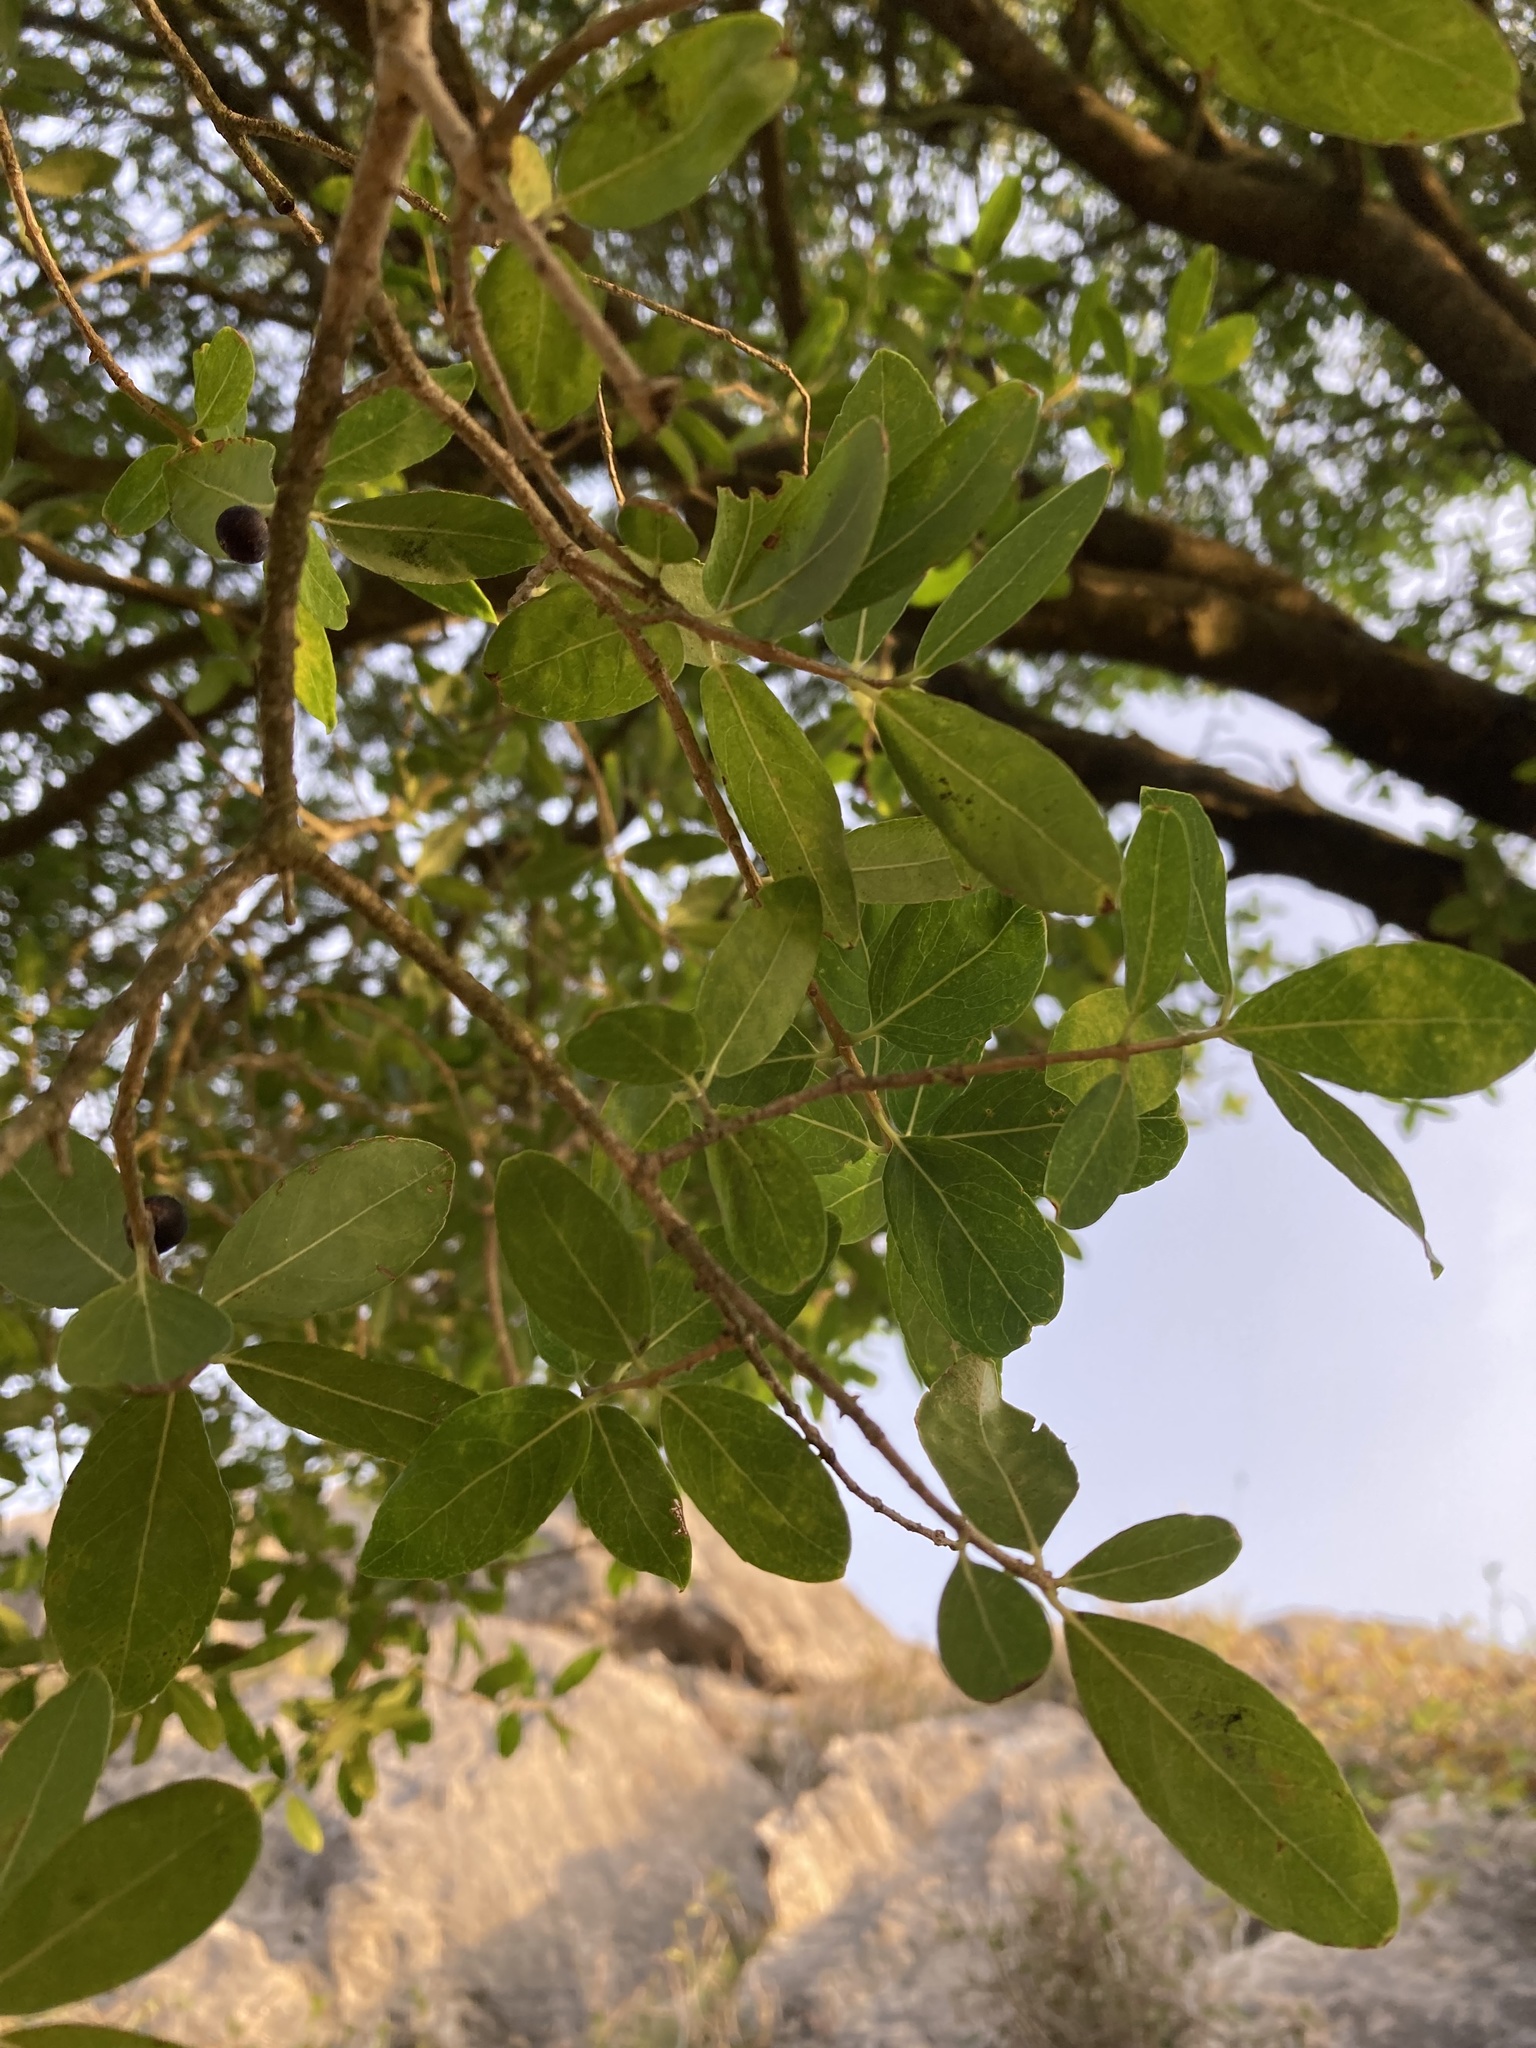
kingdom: Plantae
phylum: Tracheophyta
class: Magnoliopsida
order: Lamiales
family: Oleaceae
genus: Phillyrea
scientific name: Phillyrea latifolia
